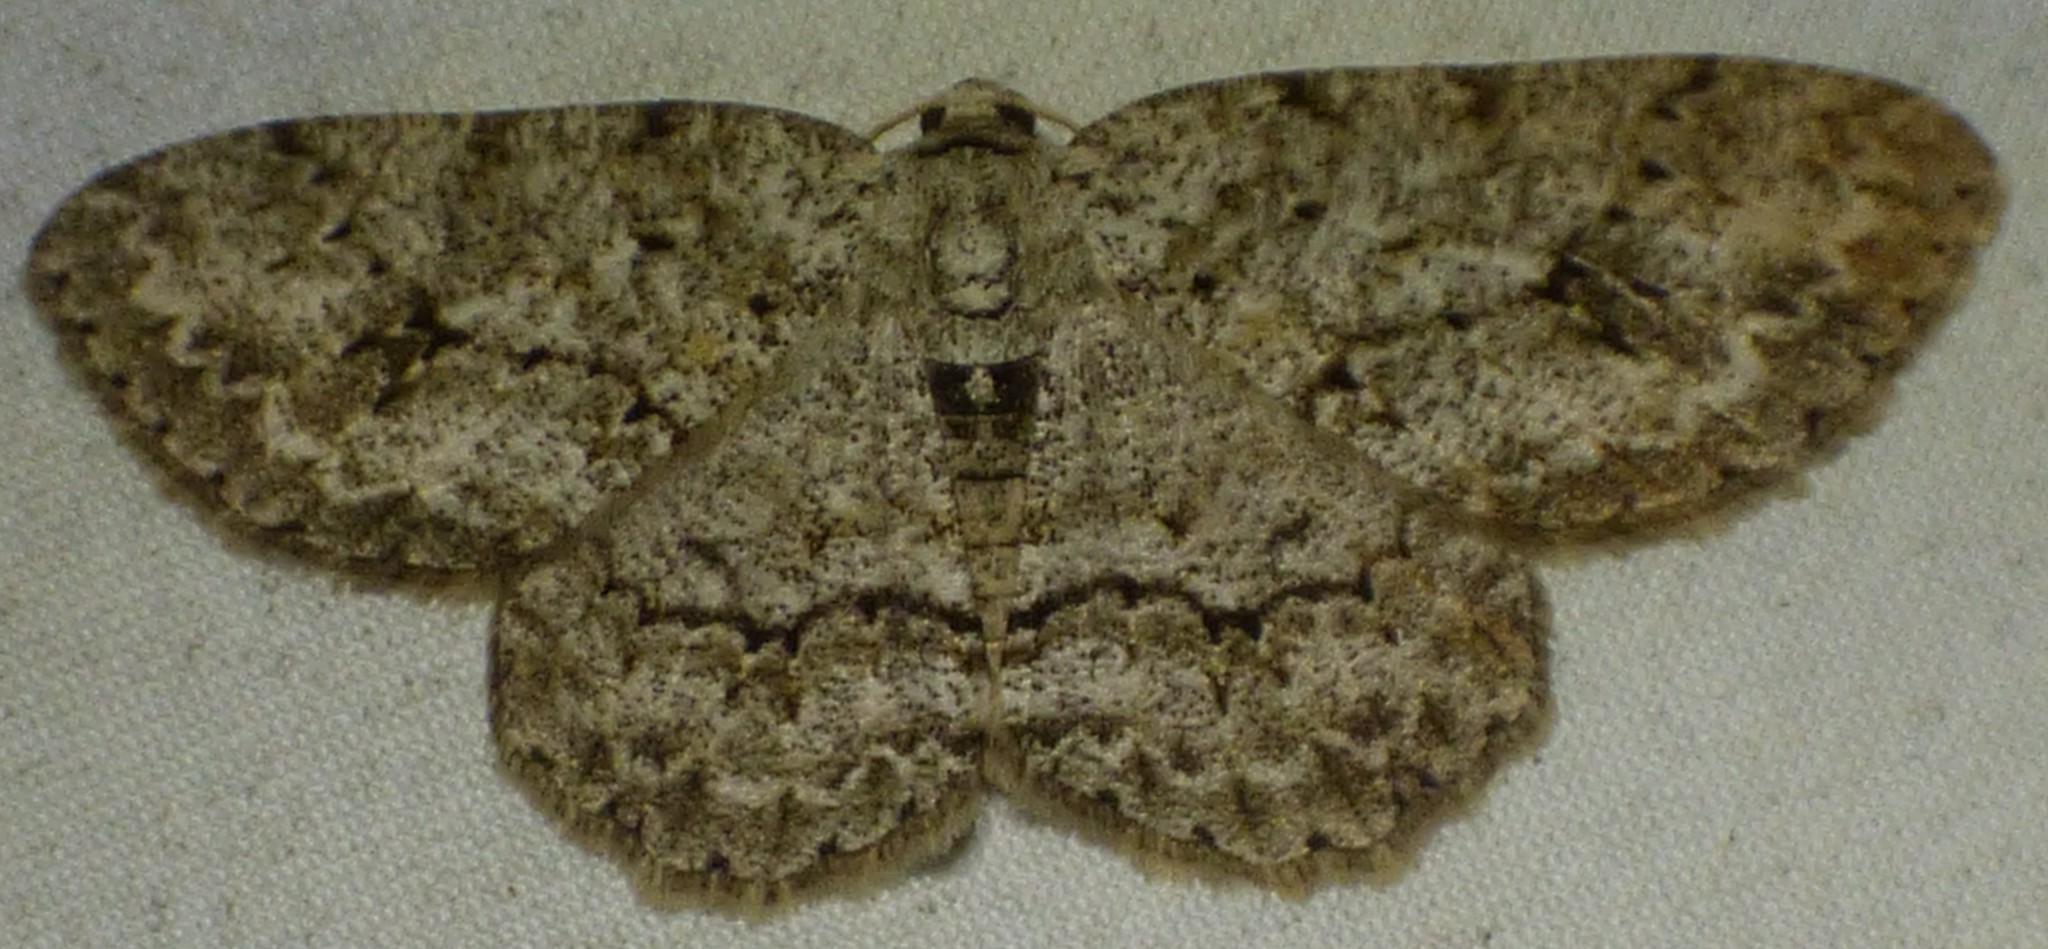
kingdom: Animalia
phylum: Arthropoda
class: Insecta
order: Lepidoptera
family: Geometridae
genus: Ectropis
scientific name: Ectropis crepuscularia
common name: Engrailed
